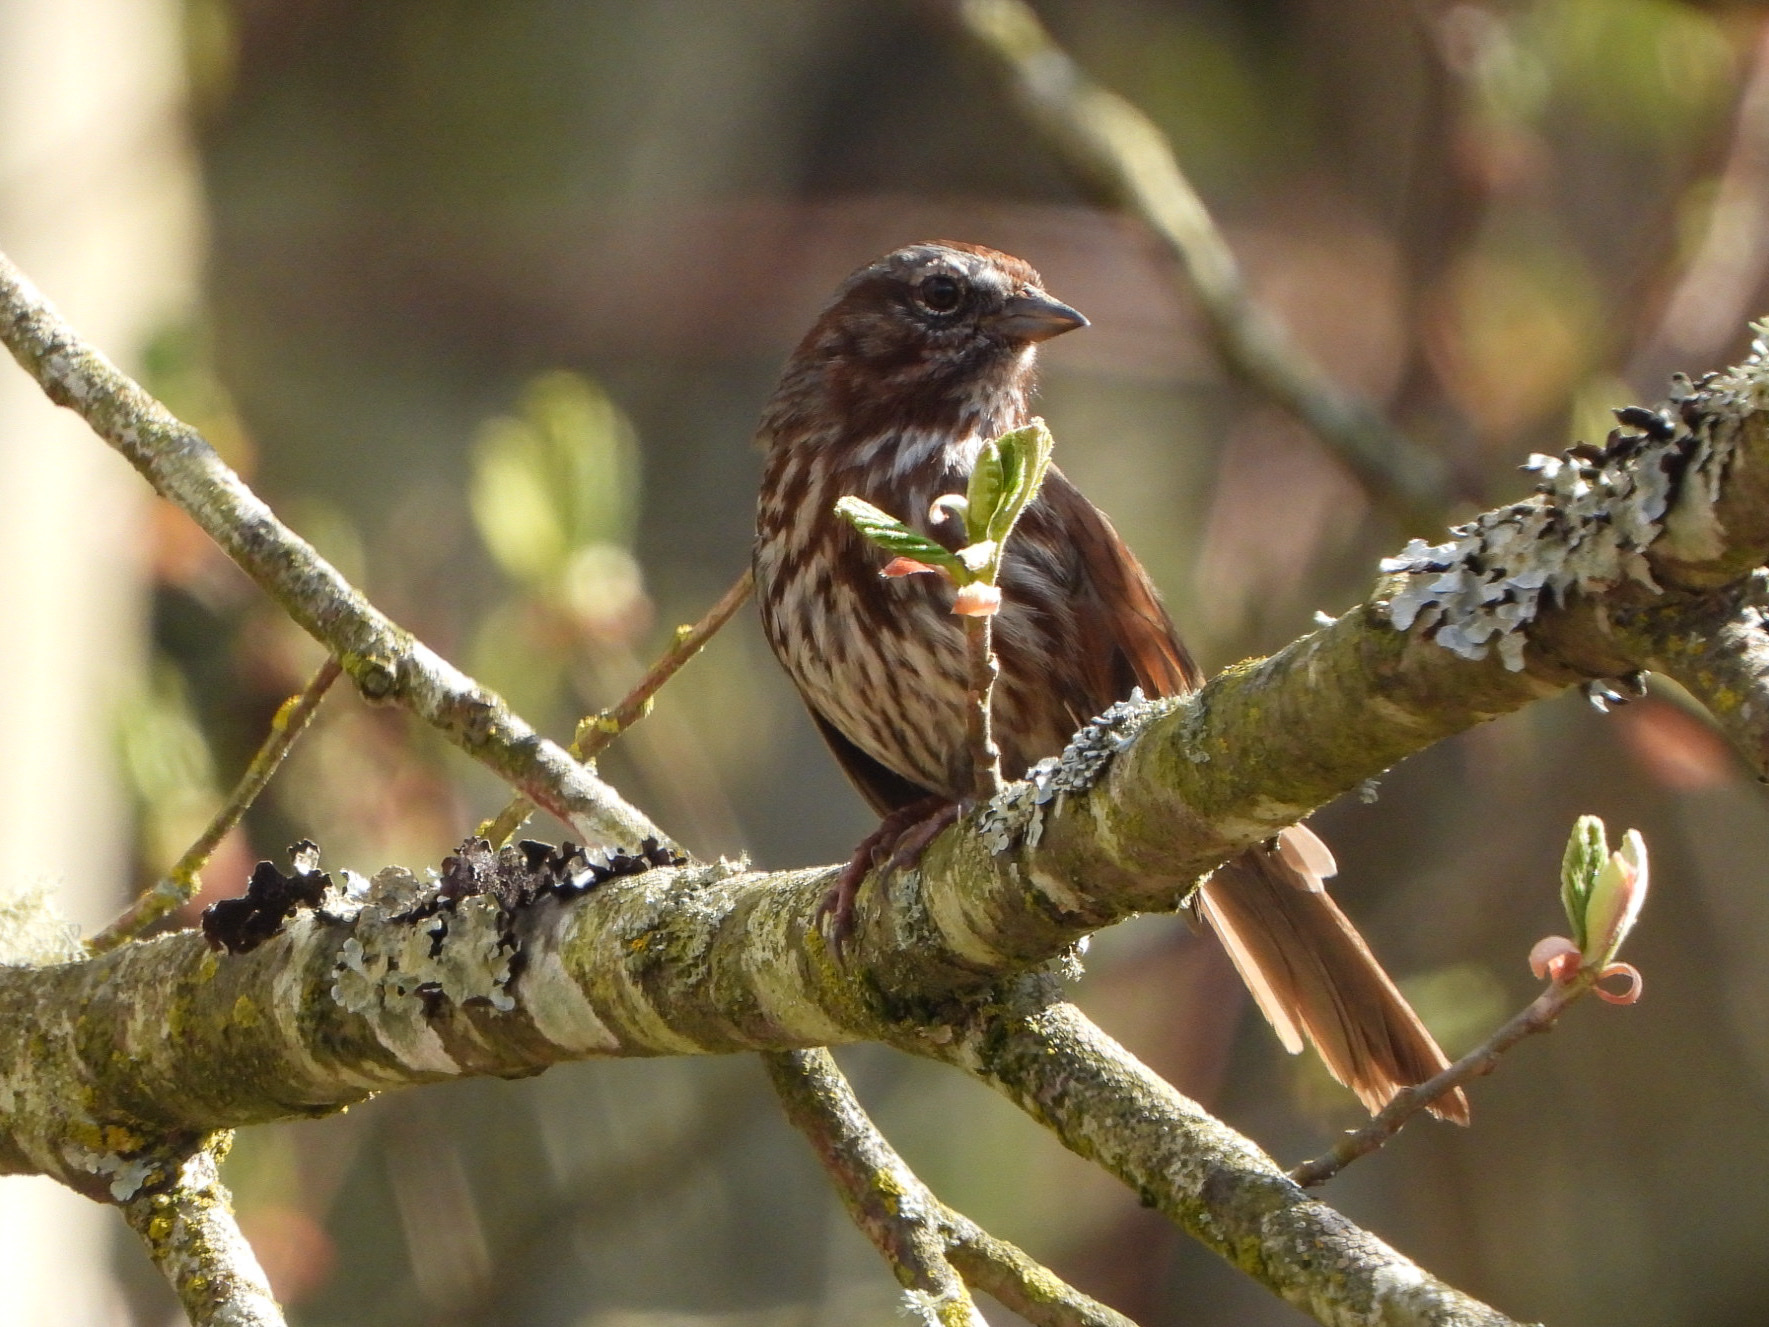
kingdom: Animalia
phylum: Chordata
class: Aves
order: Passeriformes
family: Passerellidae
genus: Melospiza
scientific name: Melospiza melodia
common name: Song sparrow
